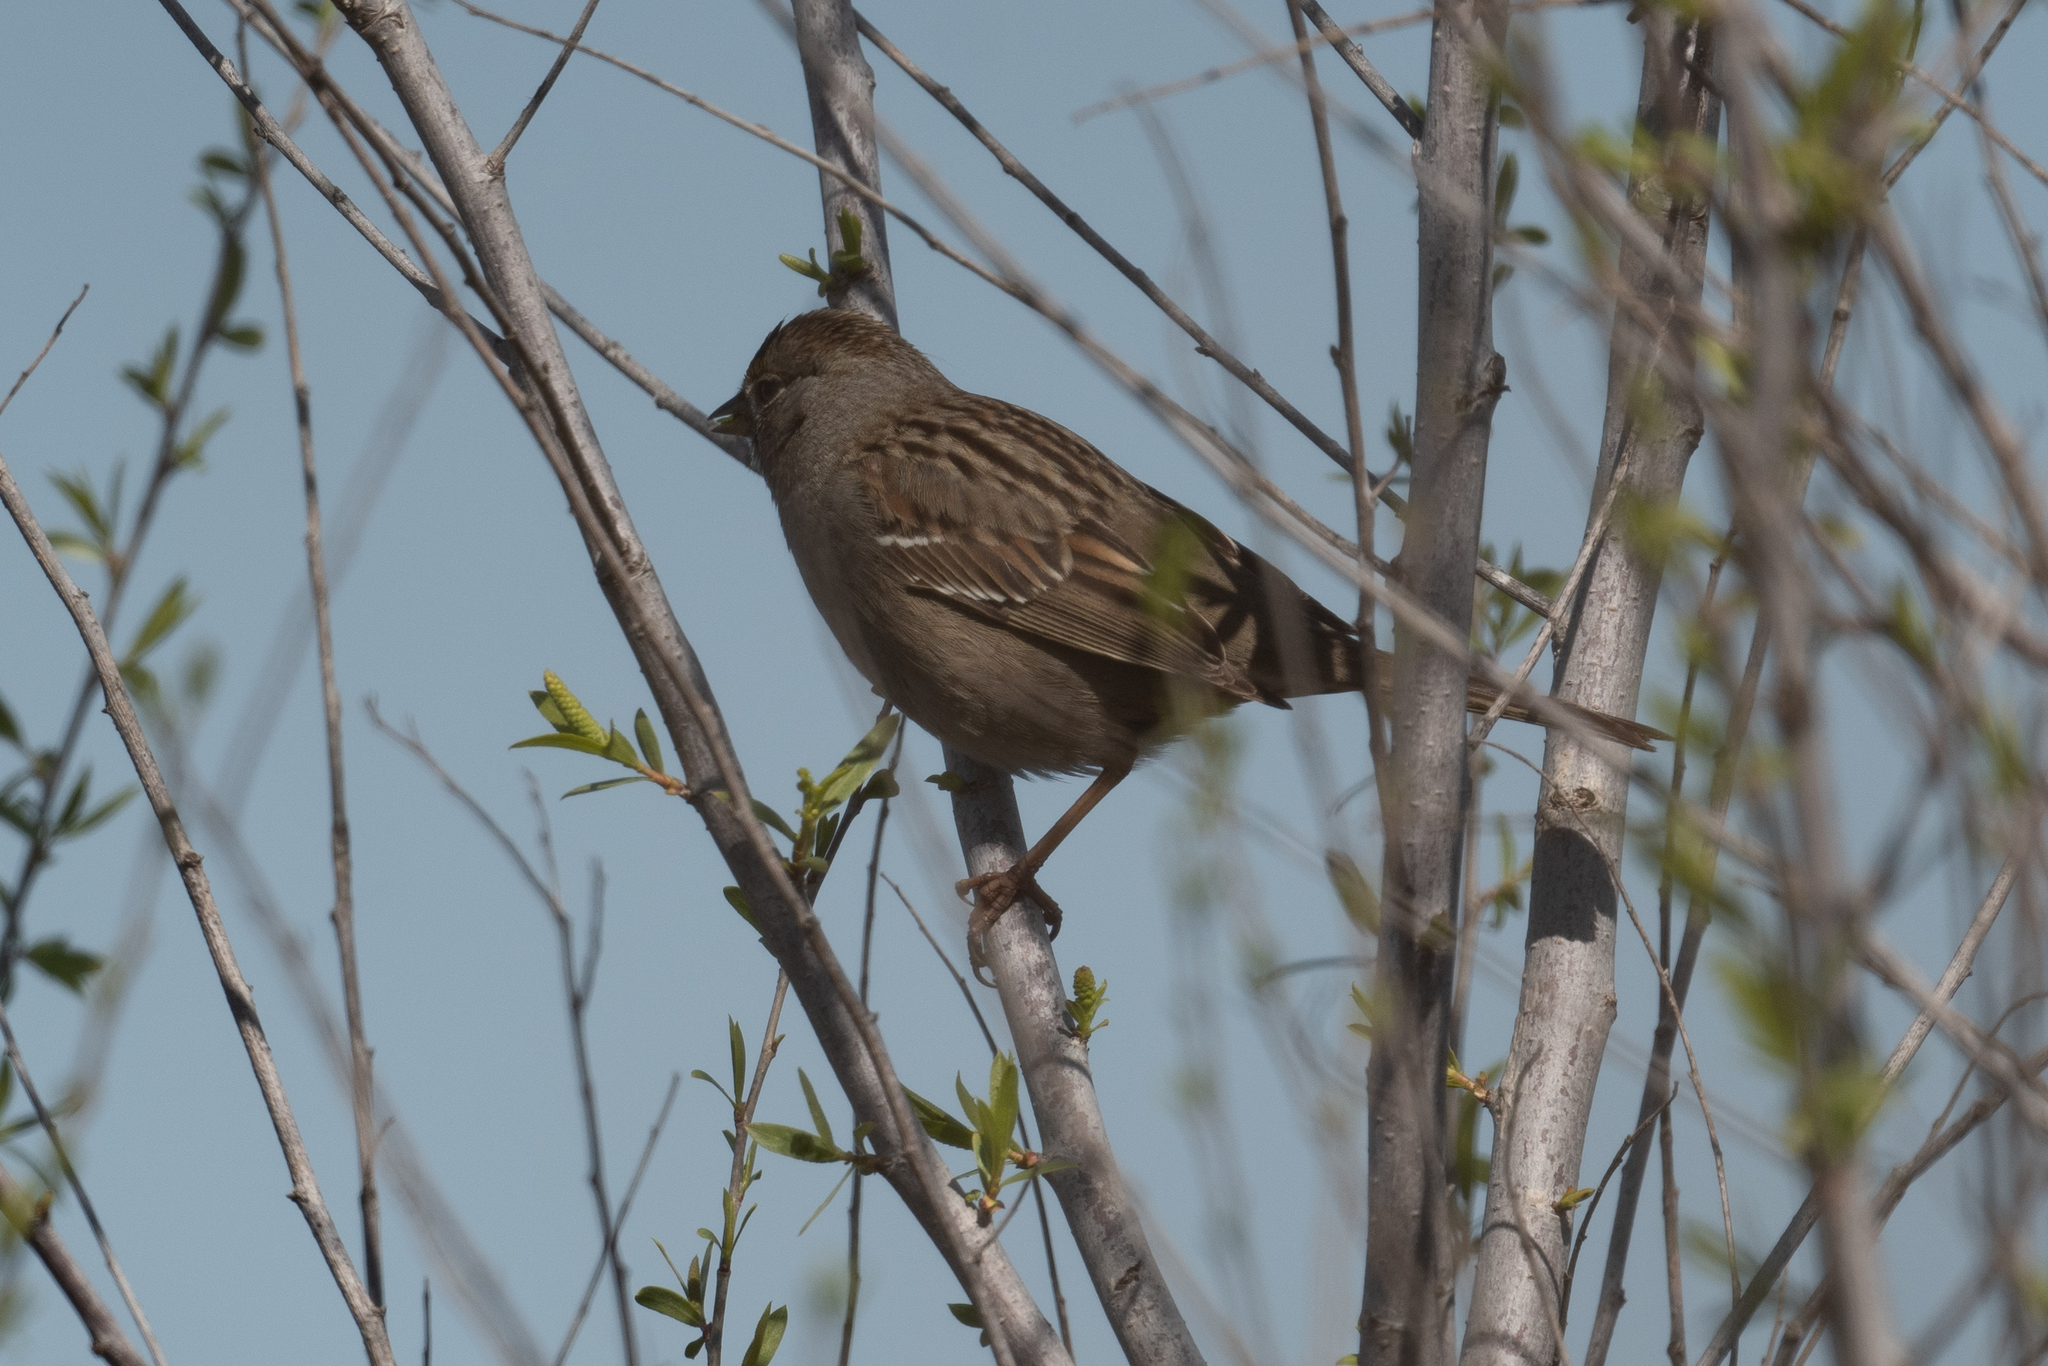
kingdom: Animalia
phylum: Chordata
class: Aves
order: Passeriformes
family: Passerellidae
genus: Zonotrichia
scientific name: Zonotrichia atricapilla
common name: Golden-crowned sparrow
